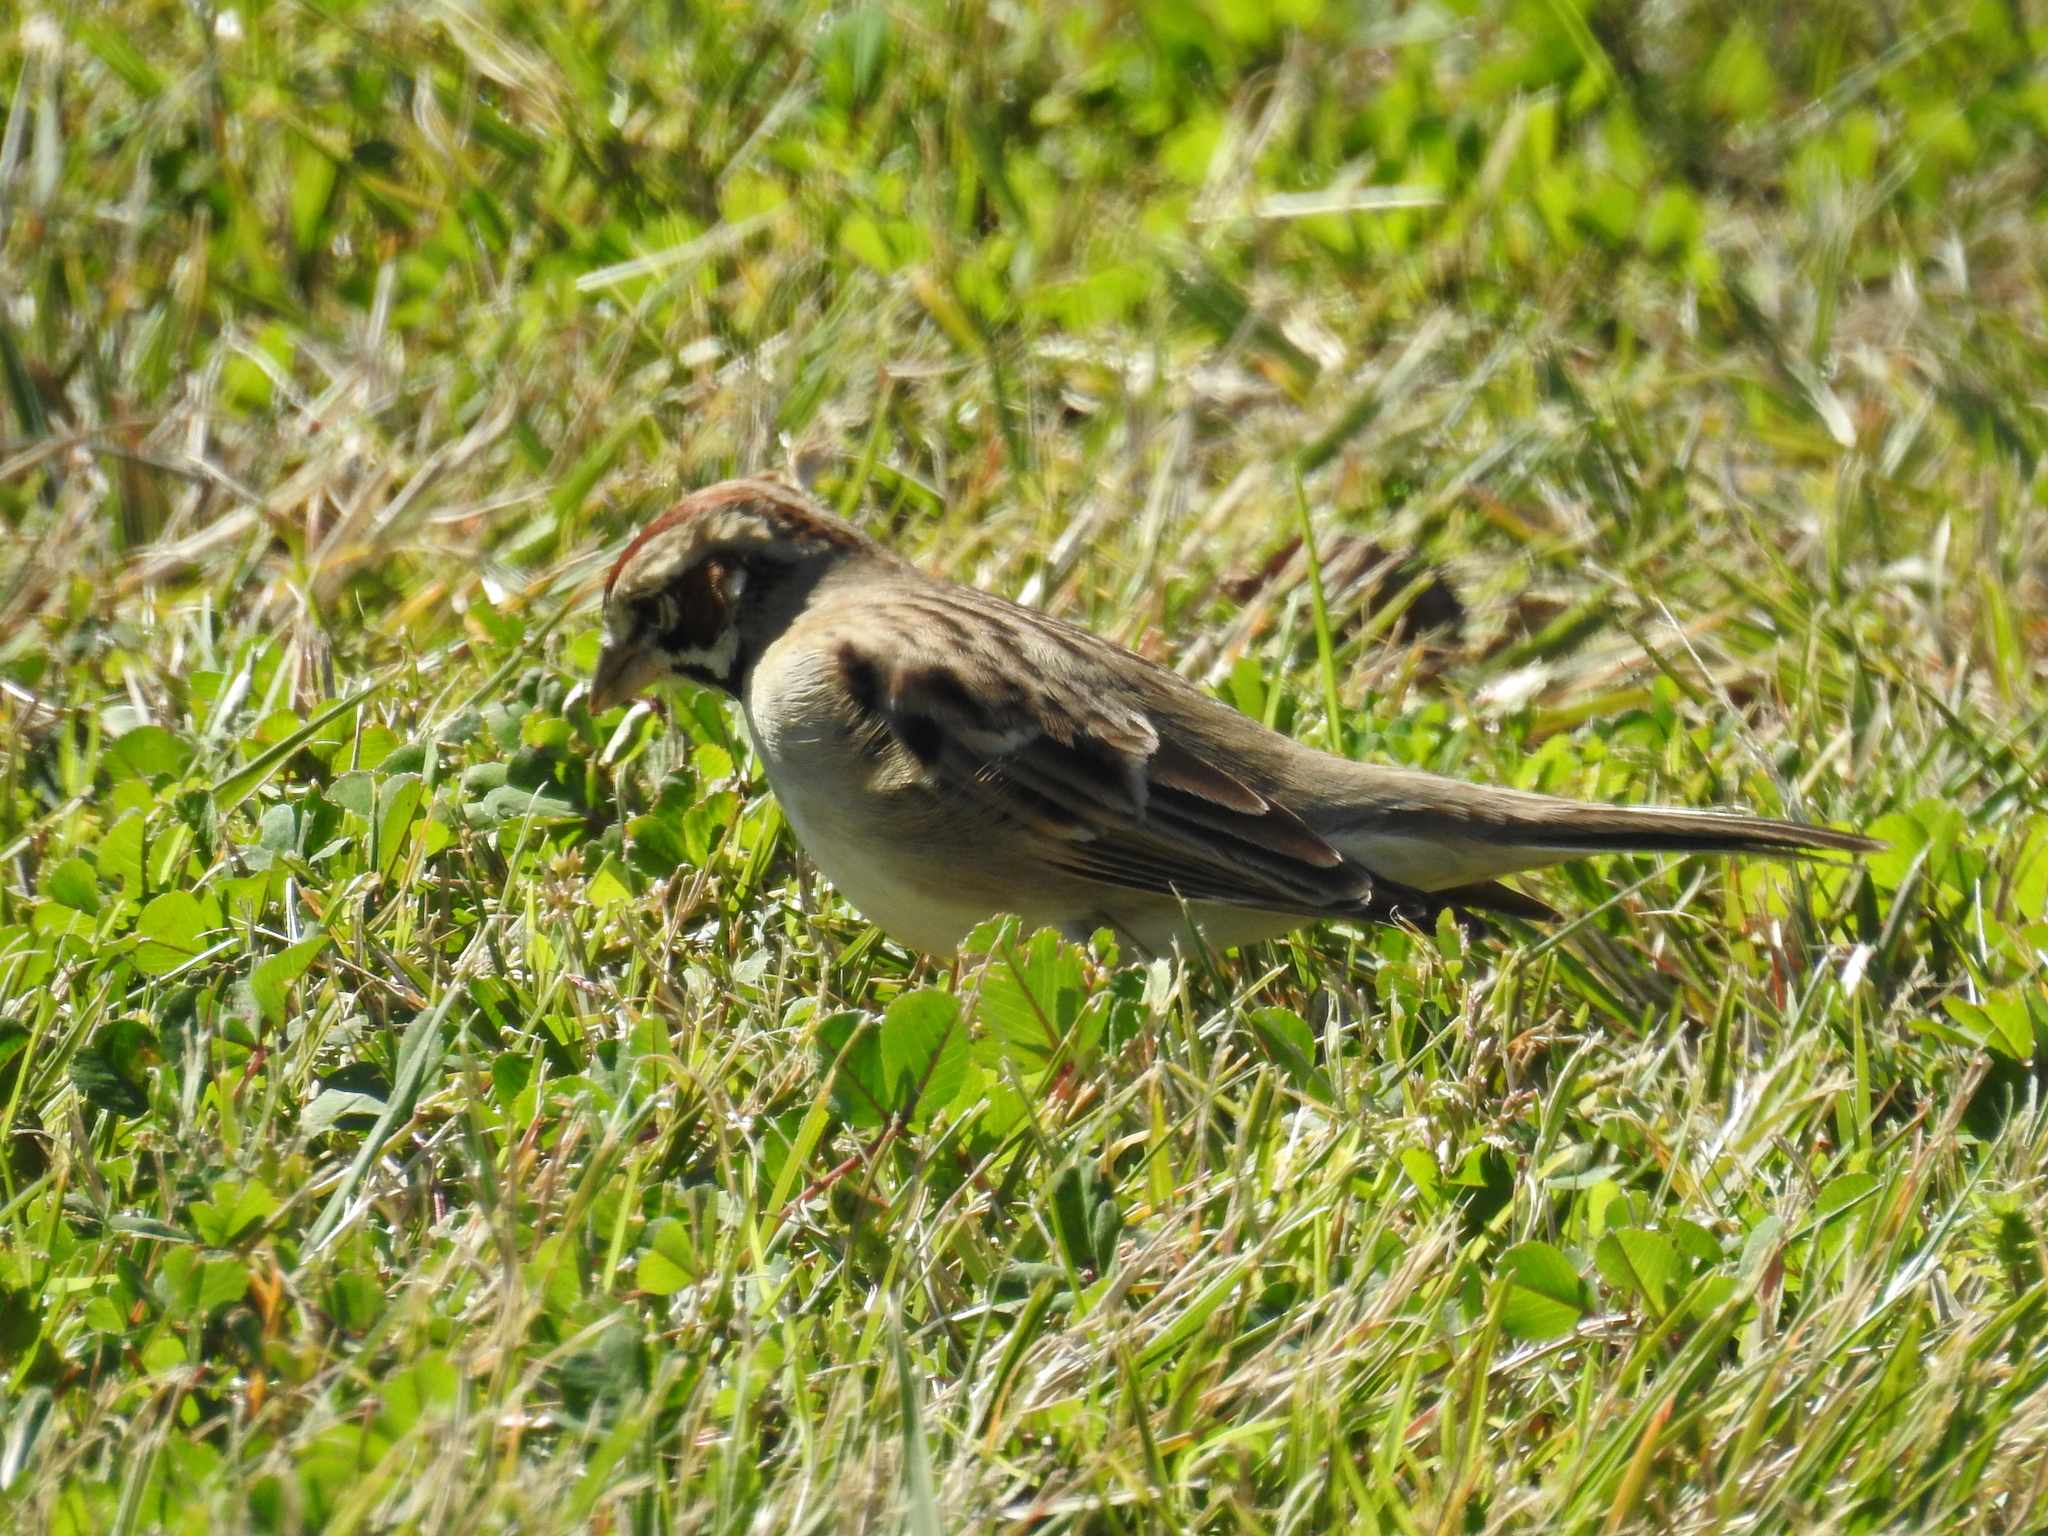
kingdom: Animalia
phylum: Chordata
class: Aves
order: Passeriformes
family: Passerellidae
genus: Chondestes
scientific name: Chondestes grammacus
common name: Lark sparrow
